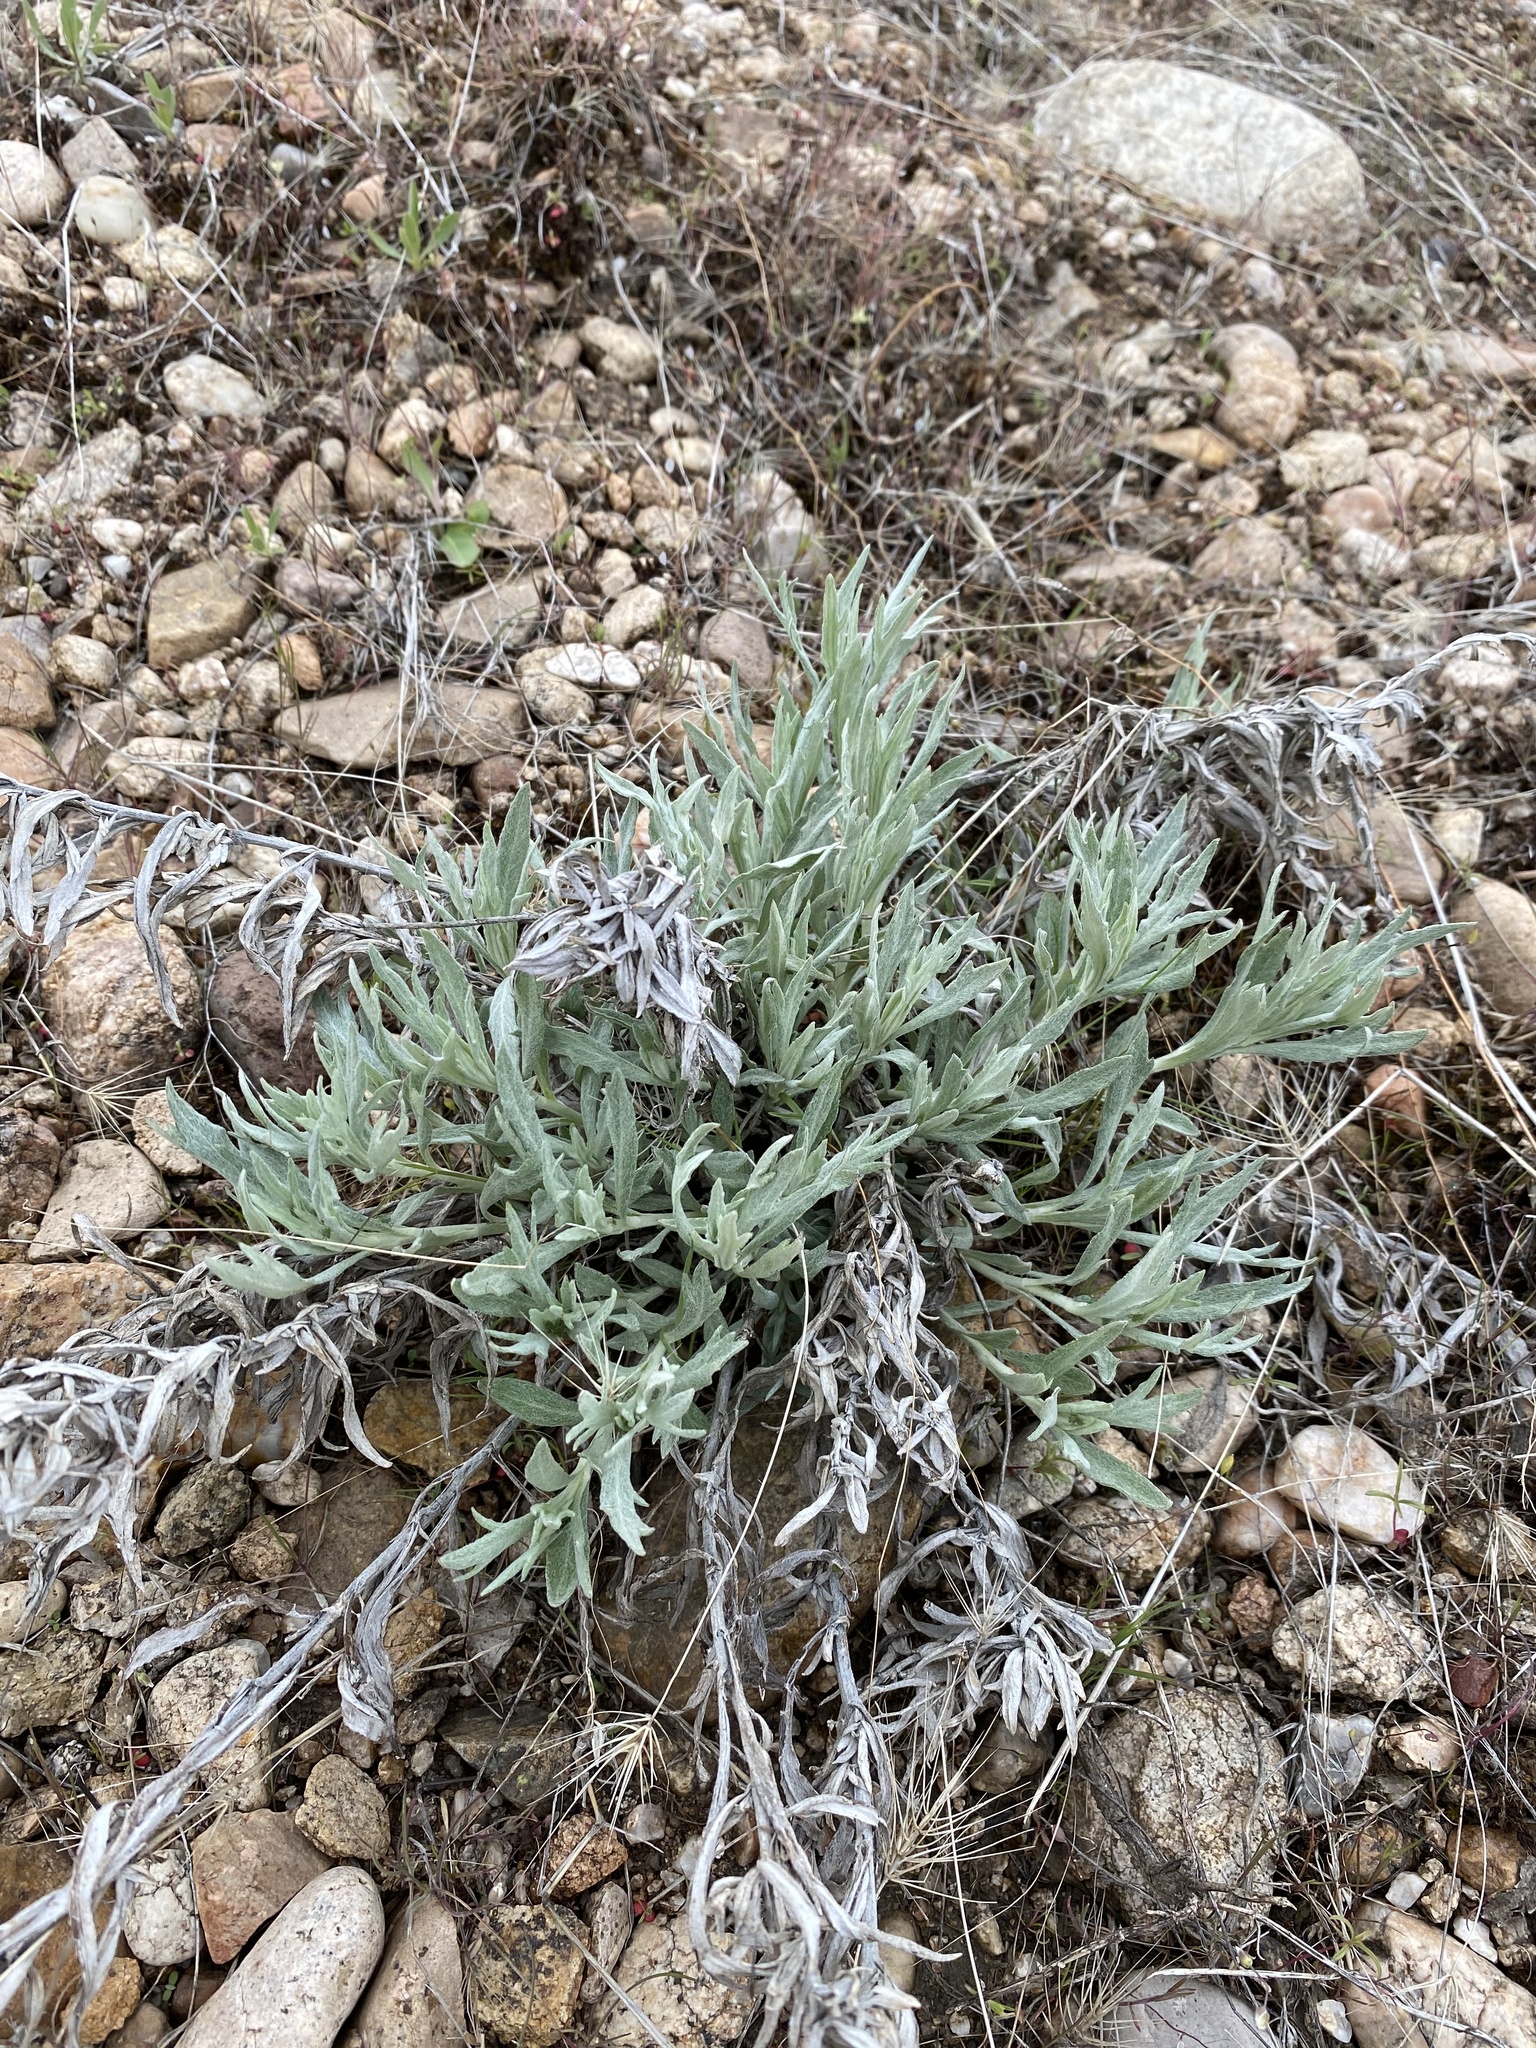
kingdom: Plantae
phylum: Tracheophyta
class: Magnoliopsida
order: Asterales
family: Asteraceae
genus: Artemisia
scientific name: Artemisia ludoviciana
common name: Western mugwort
